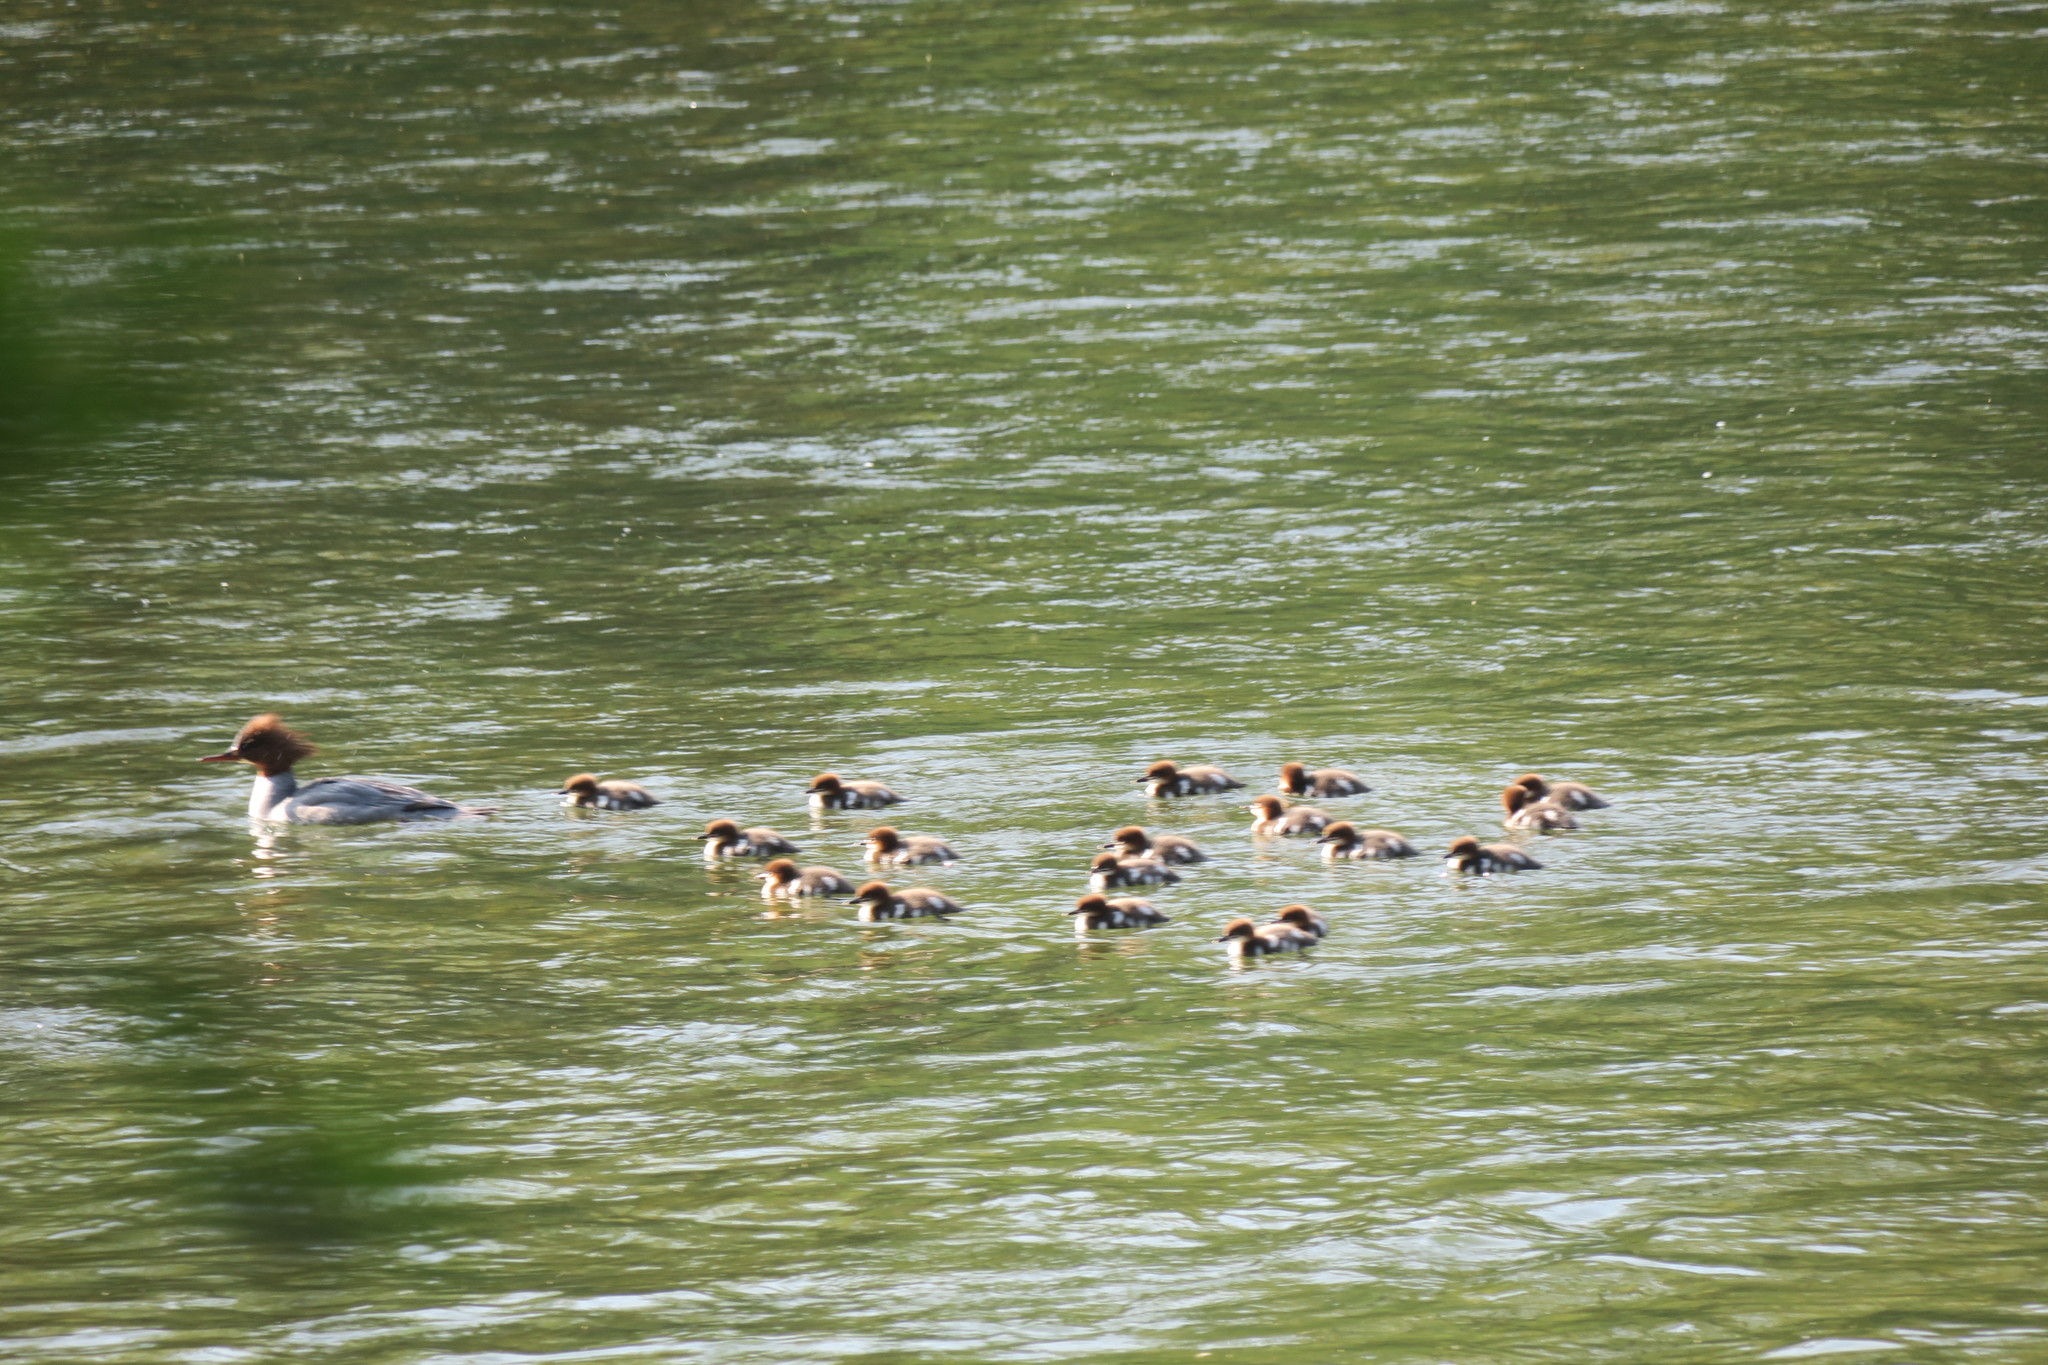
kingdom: Animalia
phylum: Chordata
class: Aves
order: Anseriformes
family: Anatidae
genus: Mergus
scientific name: Mergus merganser
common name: Common merganser
